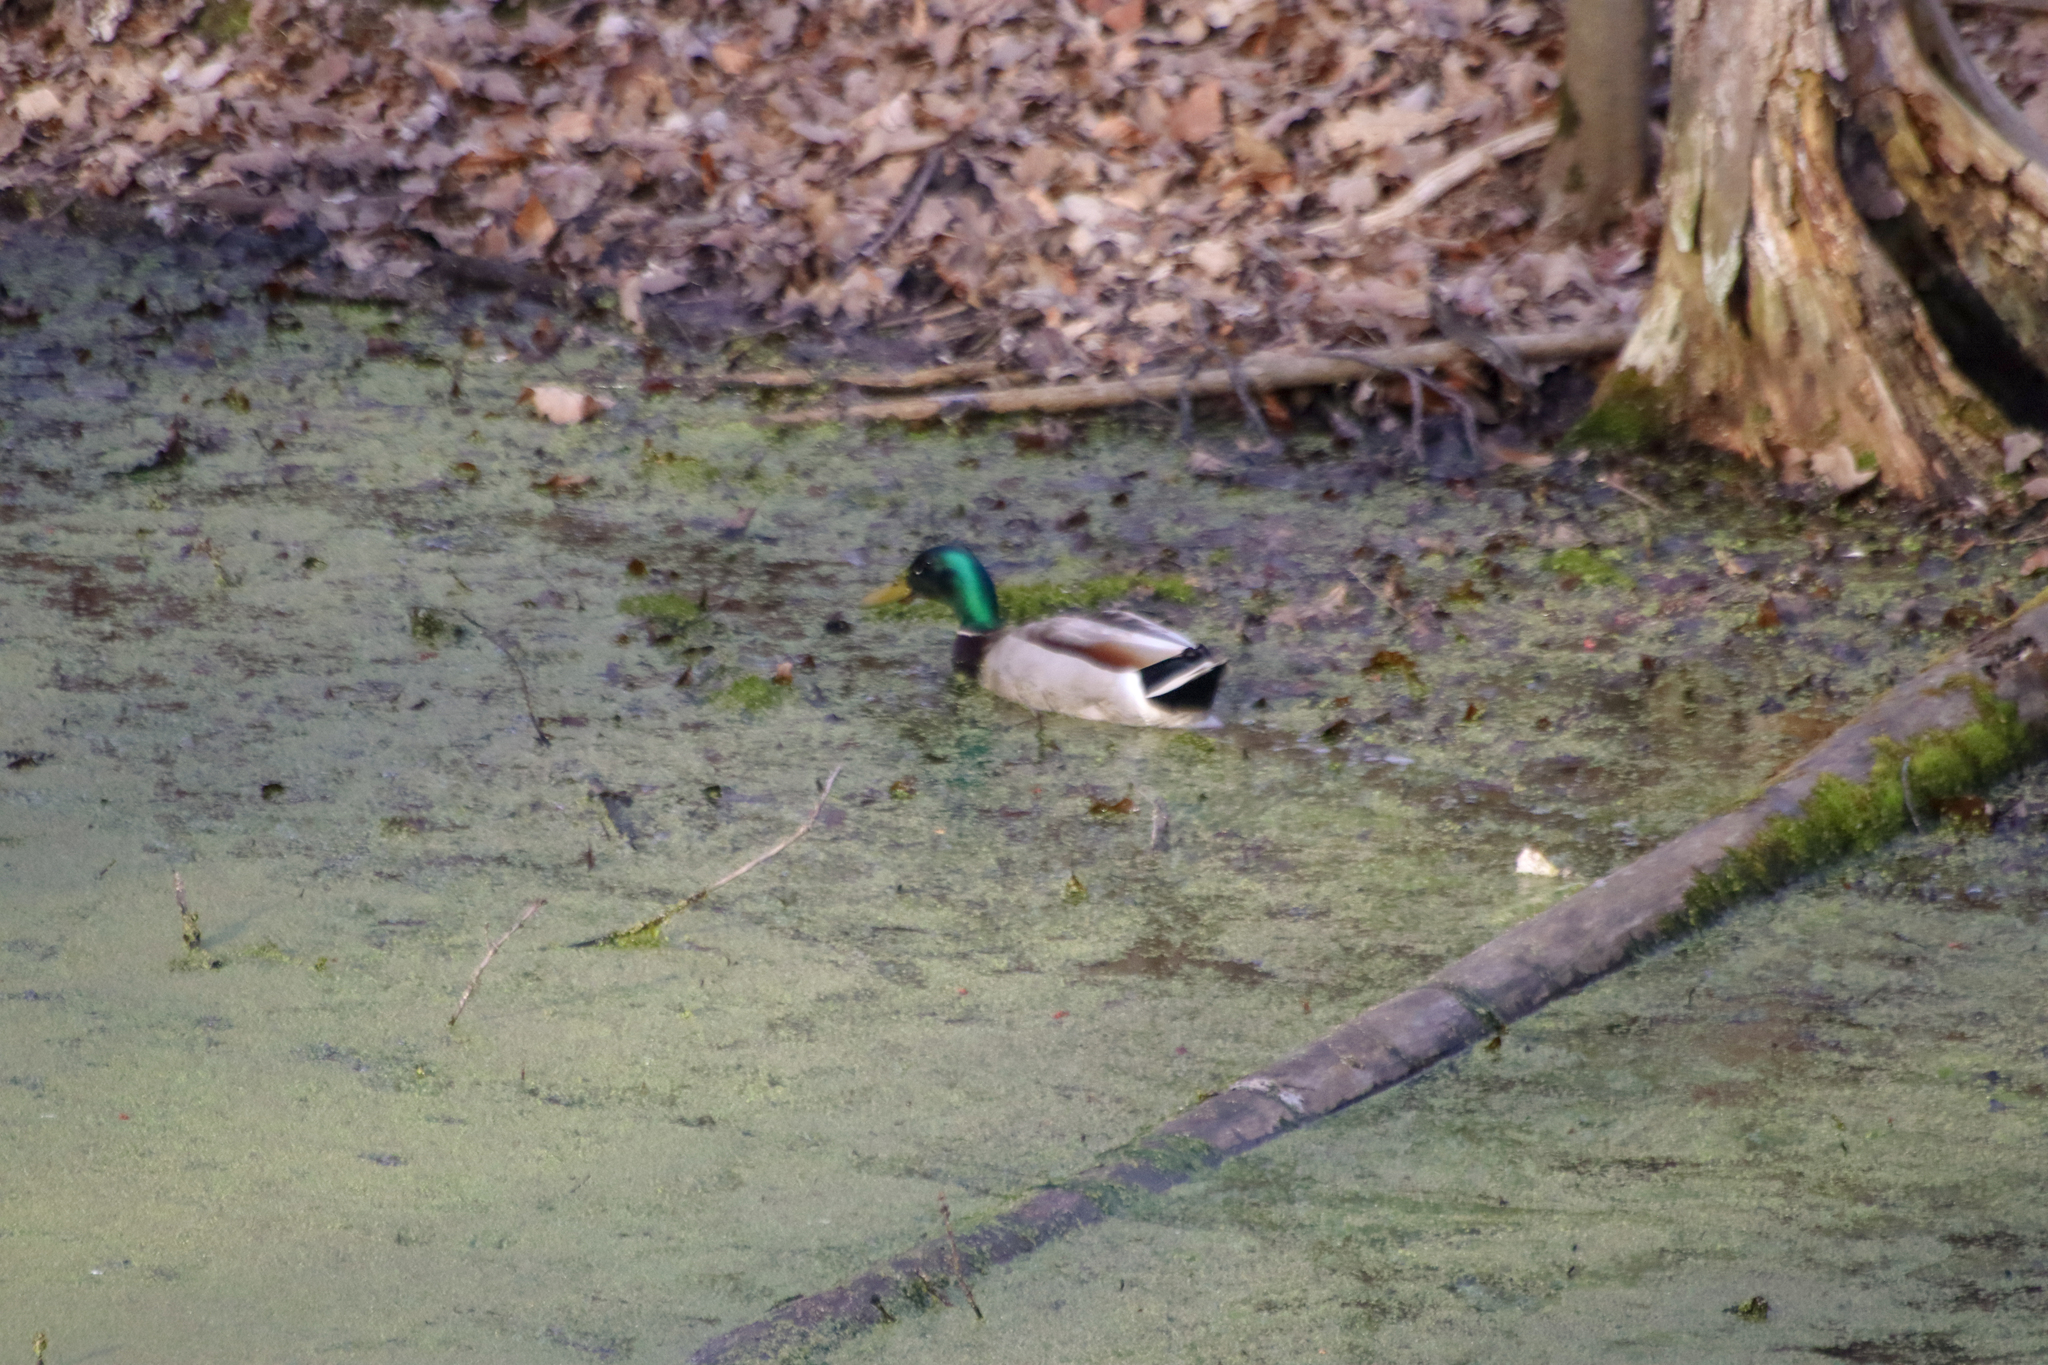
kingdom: Animalia
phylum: Chordata
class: Aves
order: Anseriformes
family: Anatidae
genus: Anas
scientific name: Anas platyrhynchos
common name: Mallard
